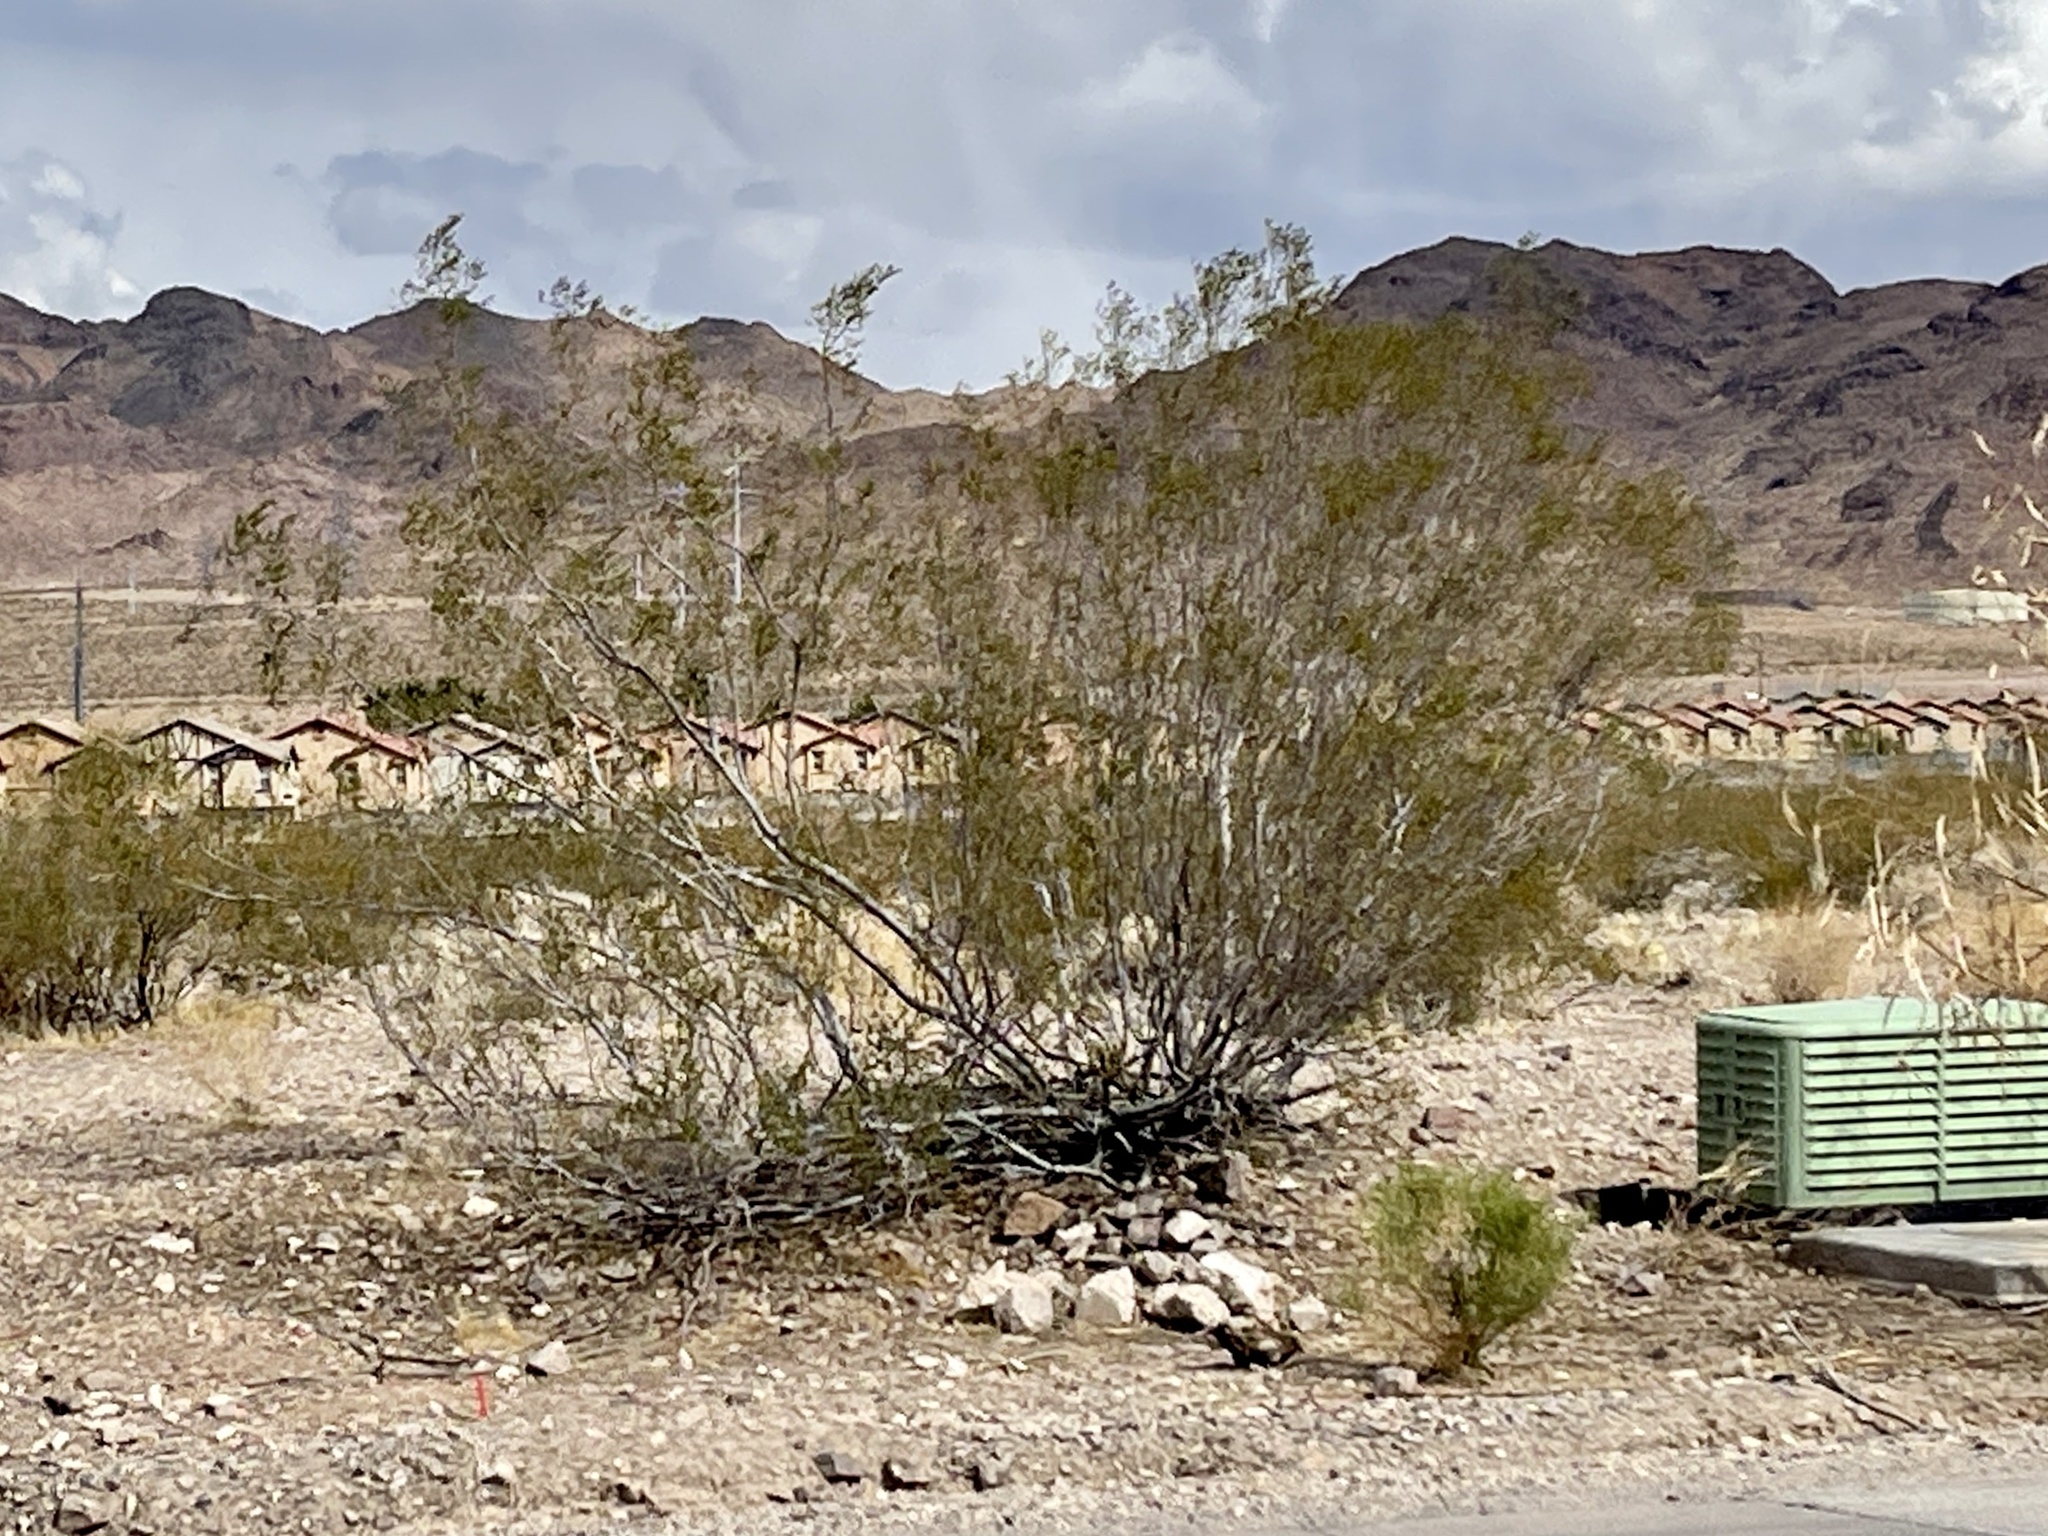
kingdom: Plantae
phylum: Tracheophyta
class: Magnoliopsida
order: Zygophyllales
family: Zygophyllaceae
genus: Larrea
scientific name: Larrea tridentata
